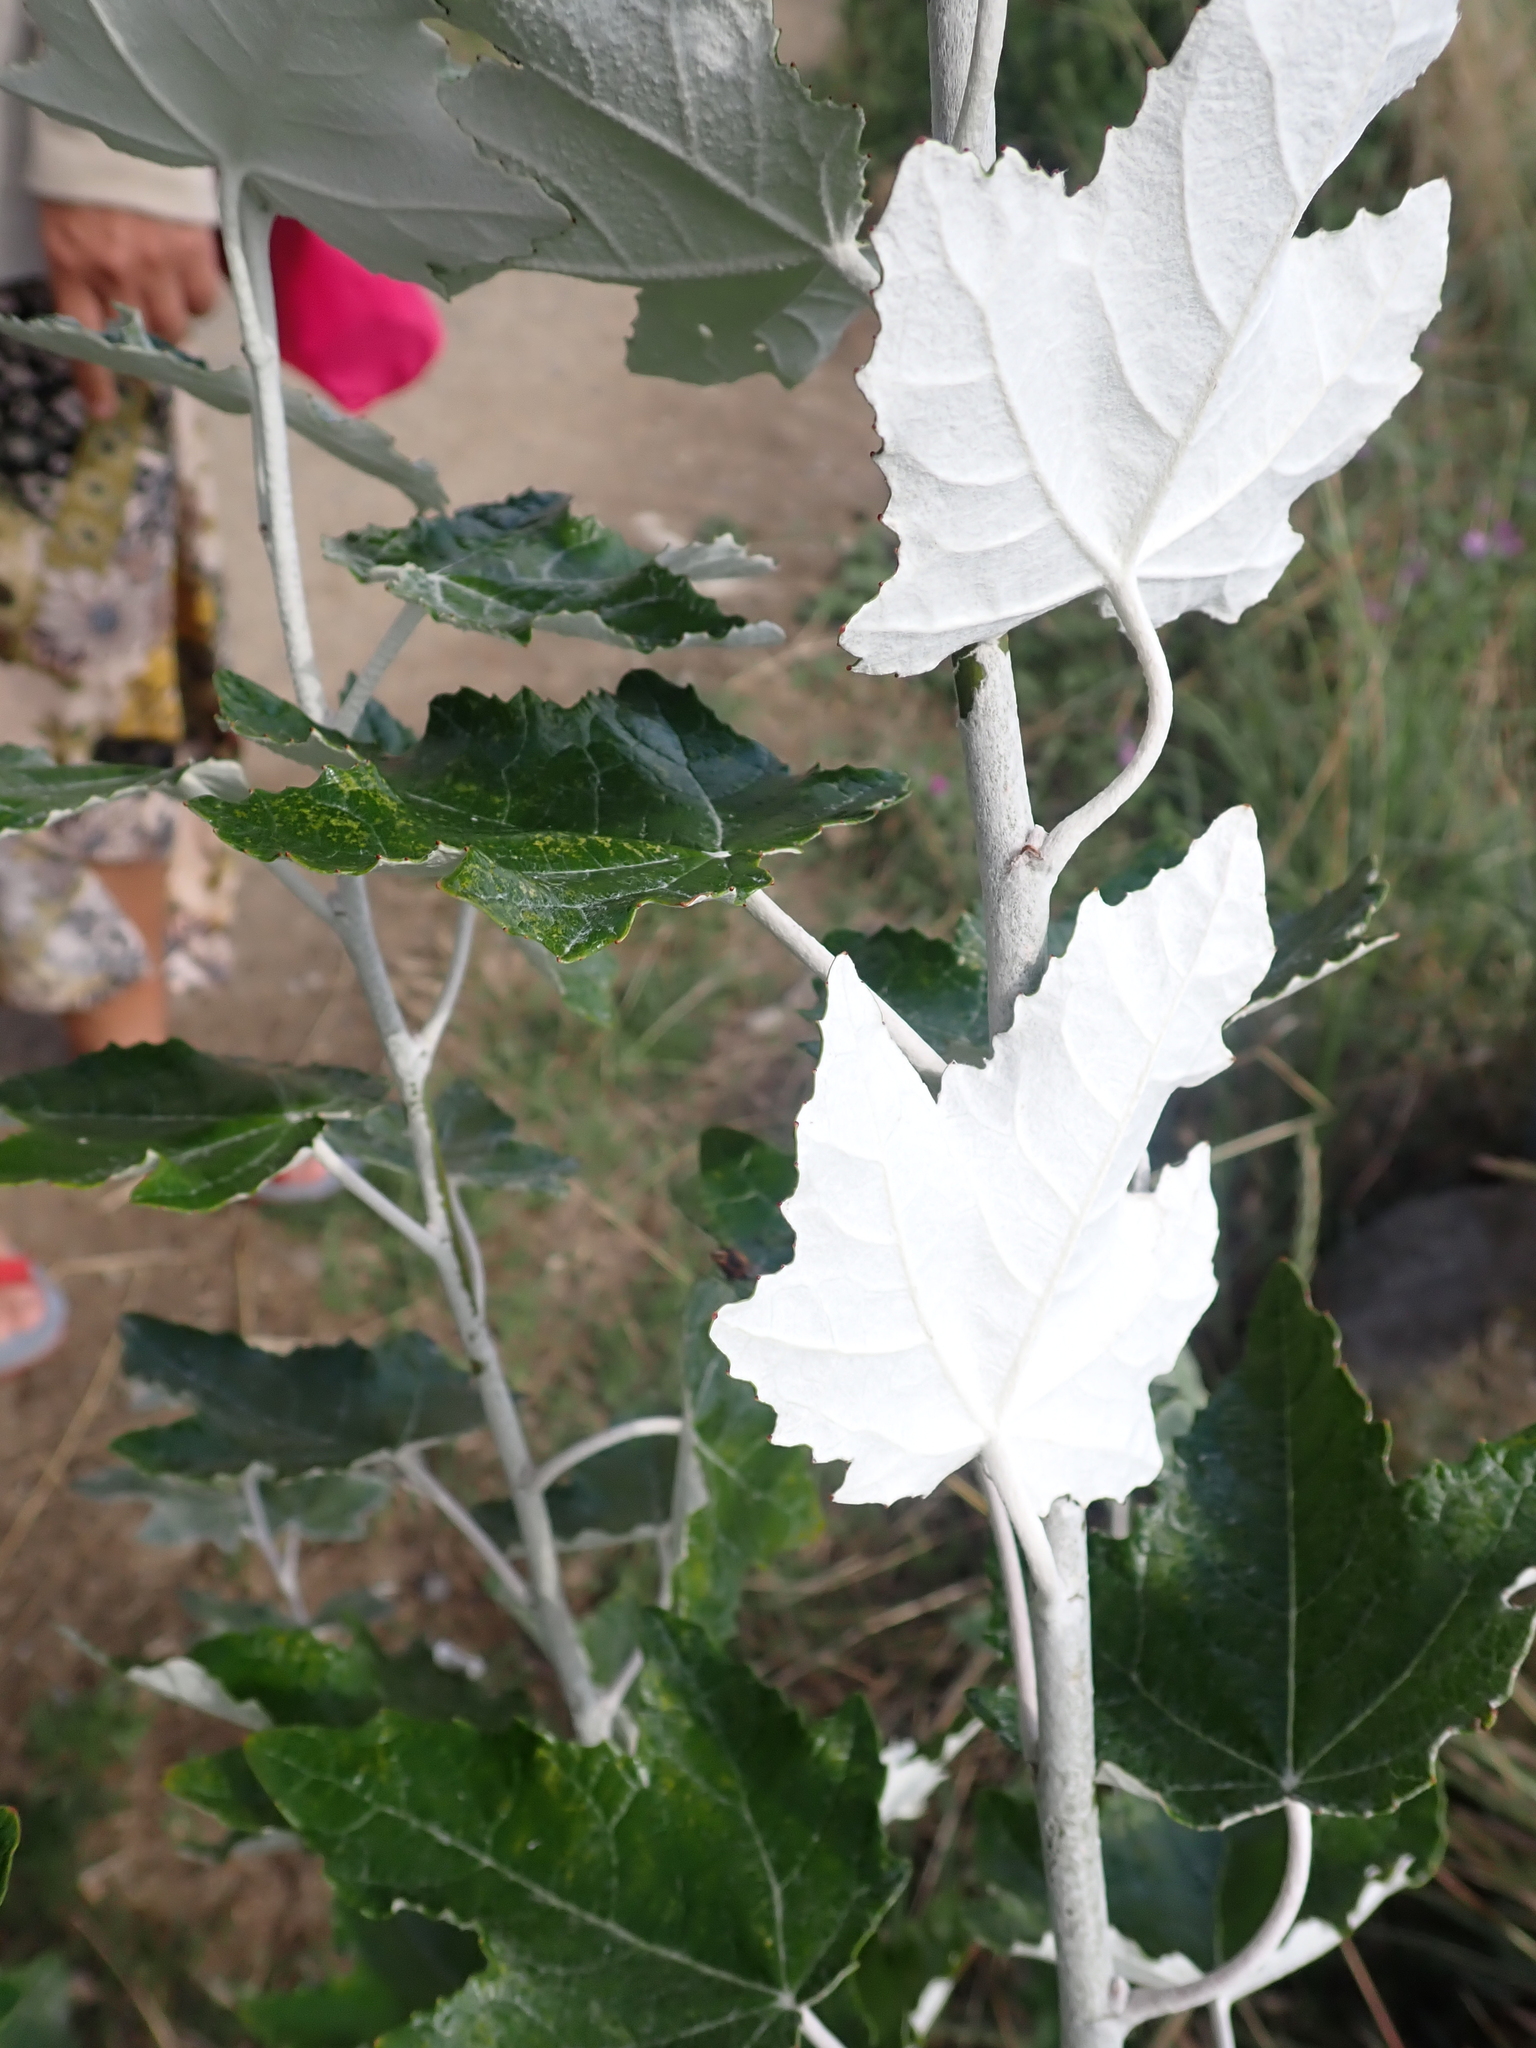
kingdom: Plantae
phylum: Tracheophyta
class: Magnoliopsida
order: Malpighiales
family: Salicaceae
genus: Populus
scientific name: Populus alba
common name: White poplar
